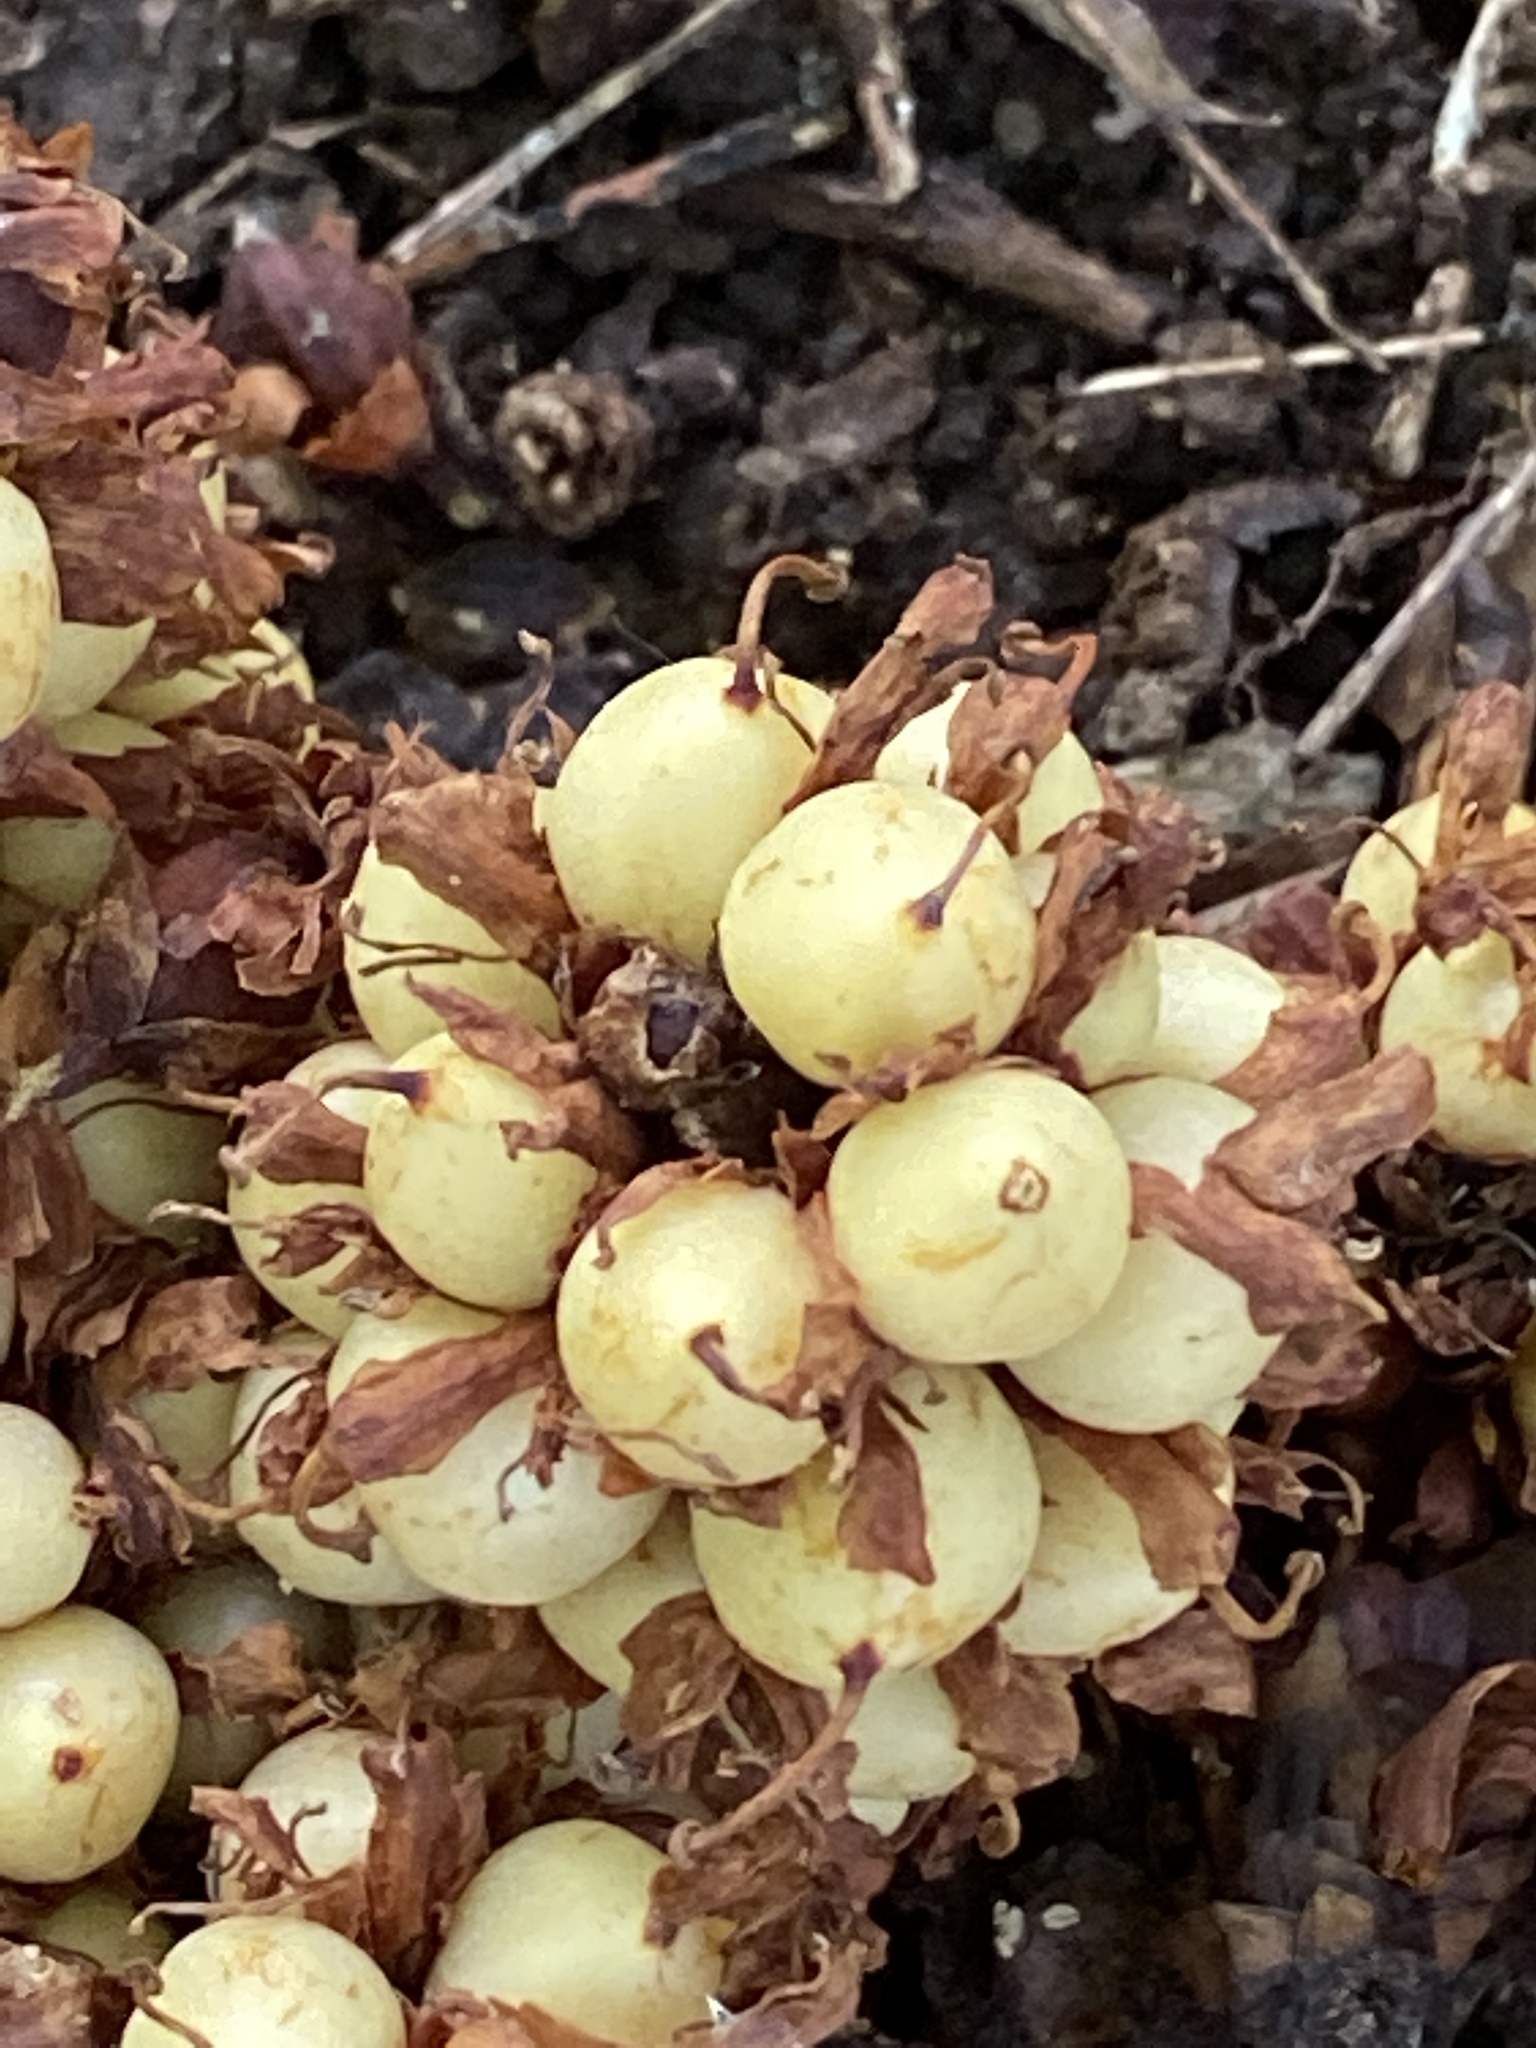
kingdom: Plantae
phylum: Tracheophyta
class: Magnoliopsida
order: Lamiales
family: Orobanchaceae
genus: Conopholis
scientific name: Conopholis americana
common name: American cancer-root
